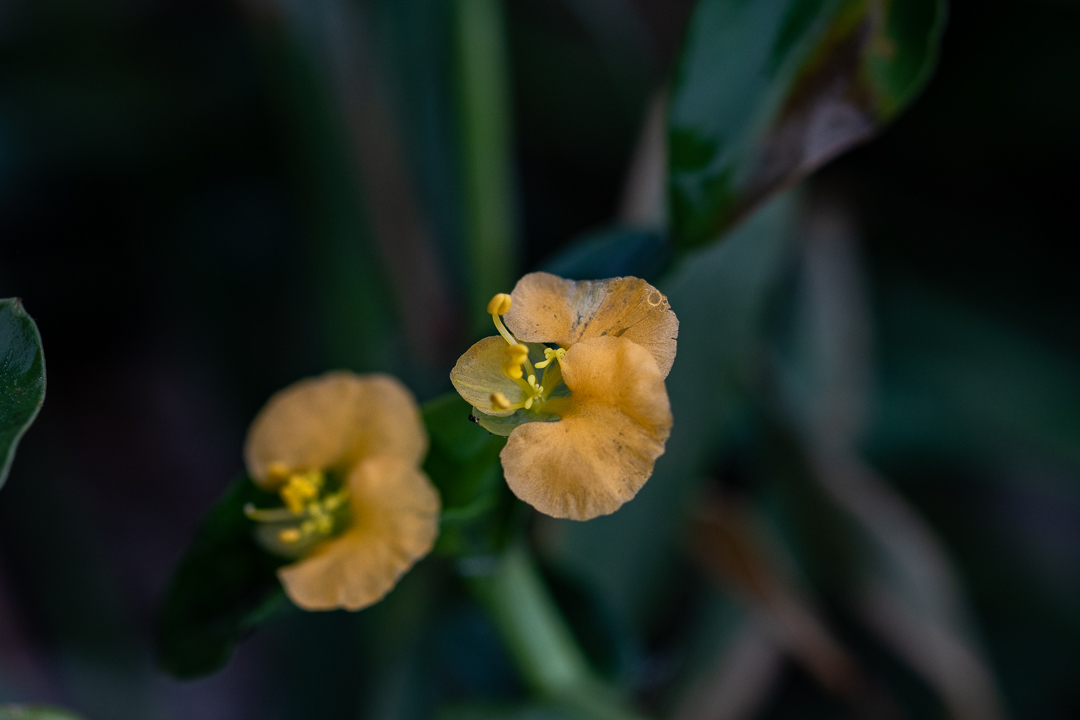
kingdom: Plantae
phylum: Tracheophyta
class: Liliopsida
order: Commelinales
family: Commelinaceae
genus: Commelina
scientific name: Commelina africana
